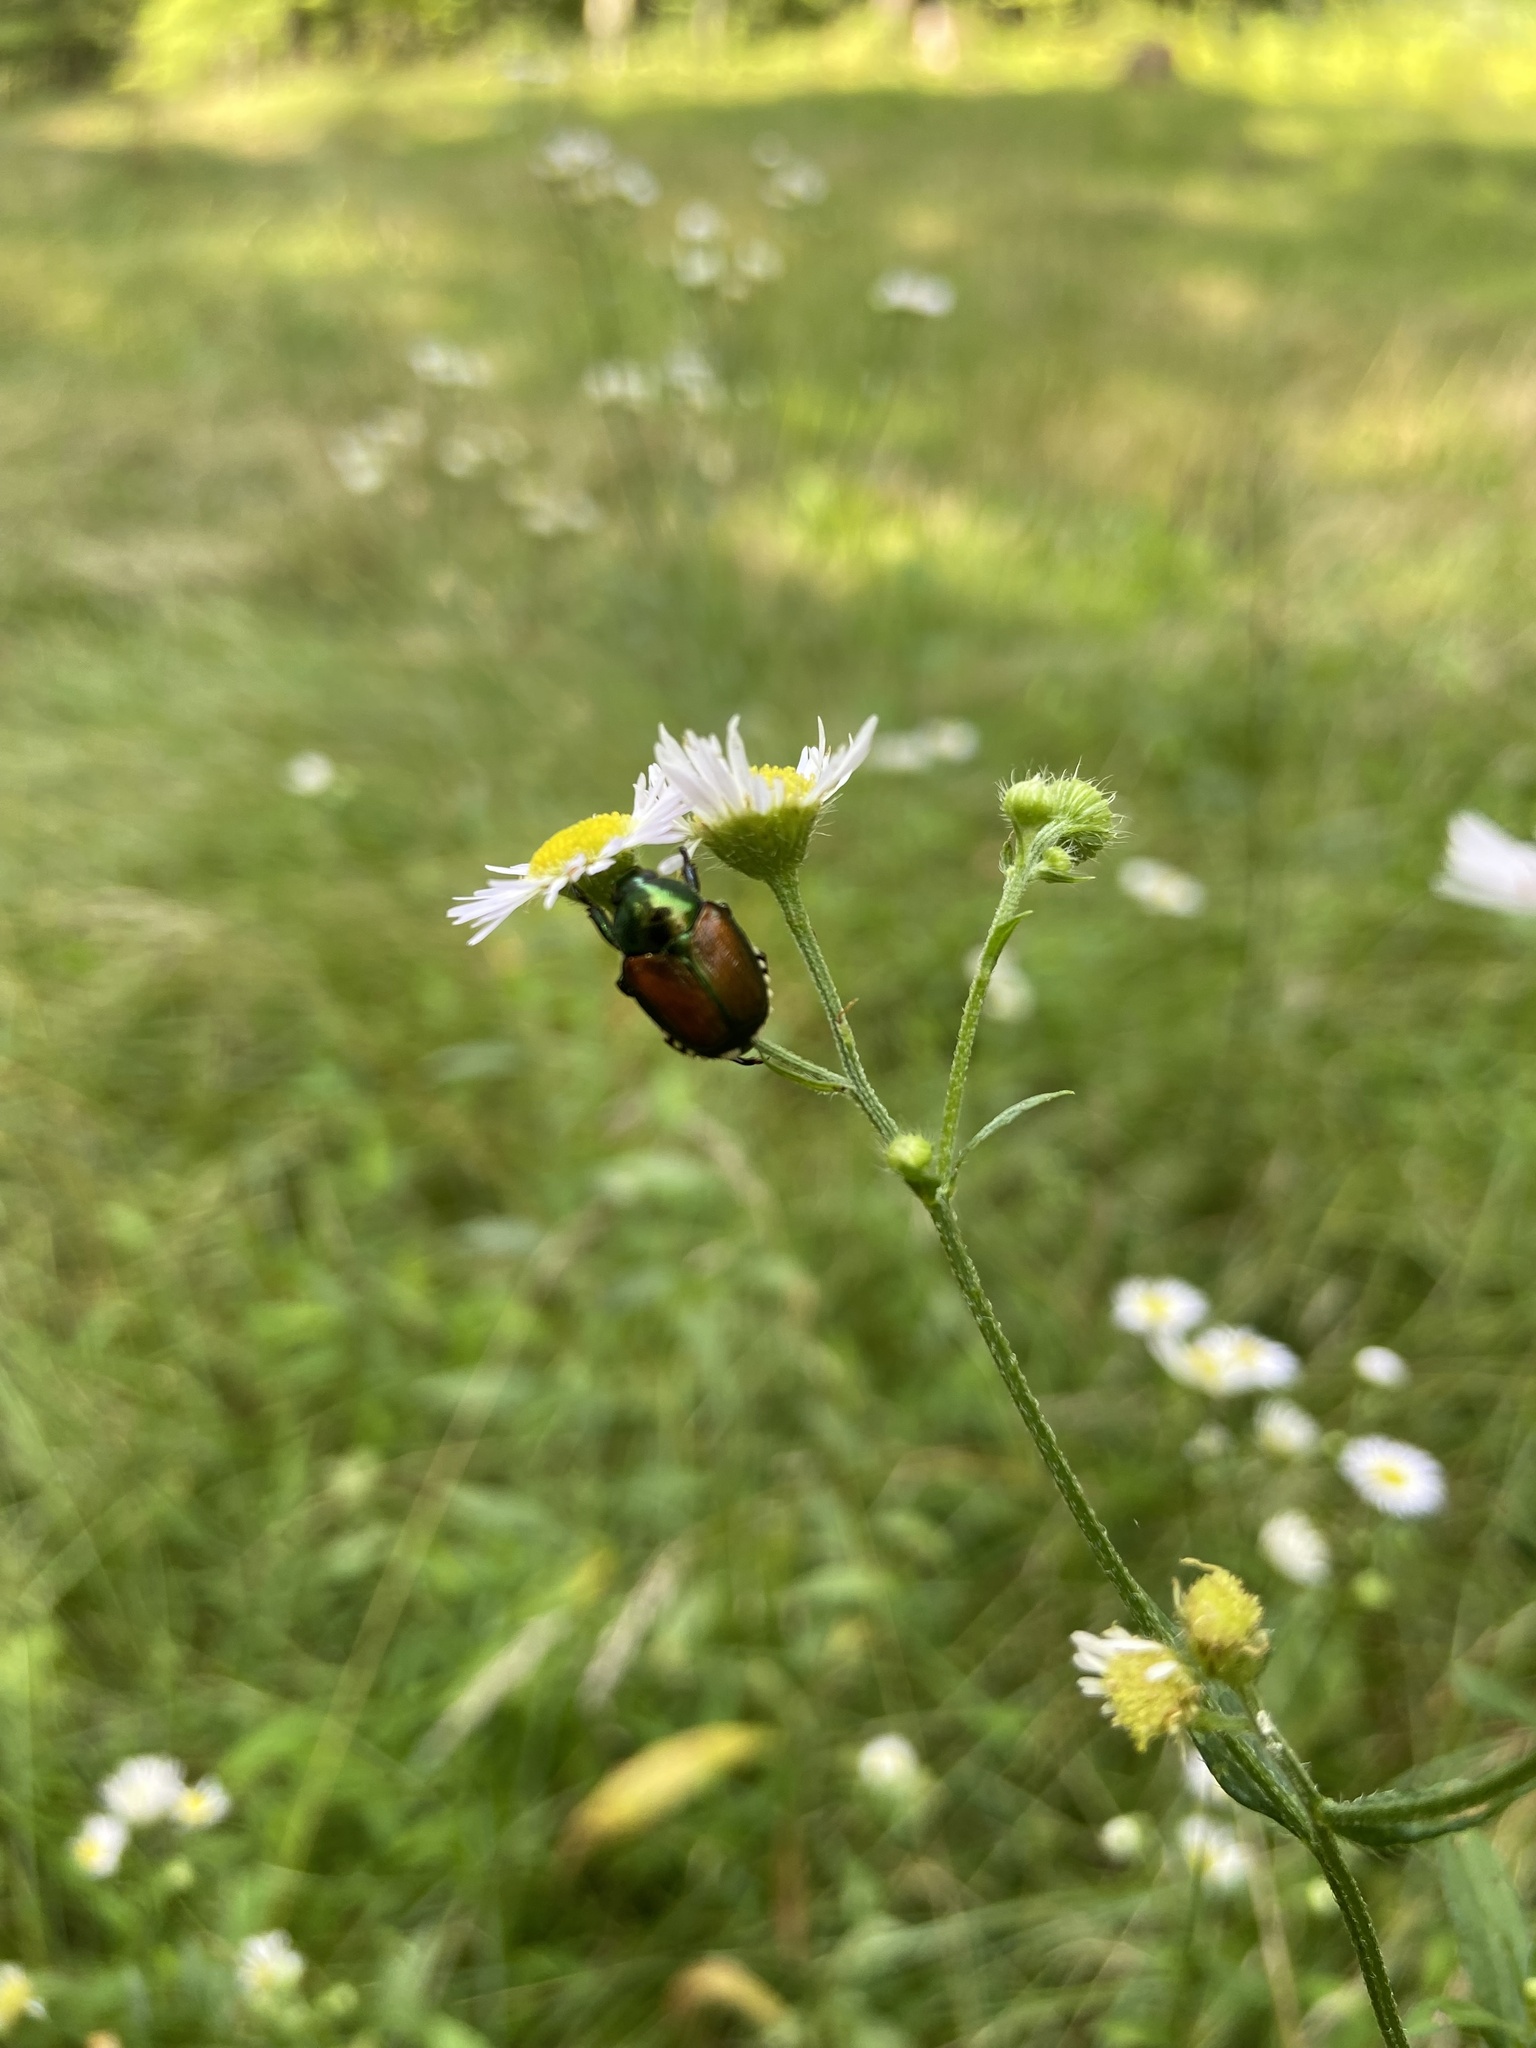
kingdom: Animalia
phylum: Arthropoda
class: Insecta
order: Coleoptera
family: Scarabaeidae
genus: Popillia
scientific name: Popillia japonica
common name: Japanese beetle
